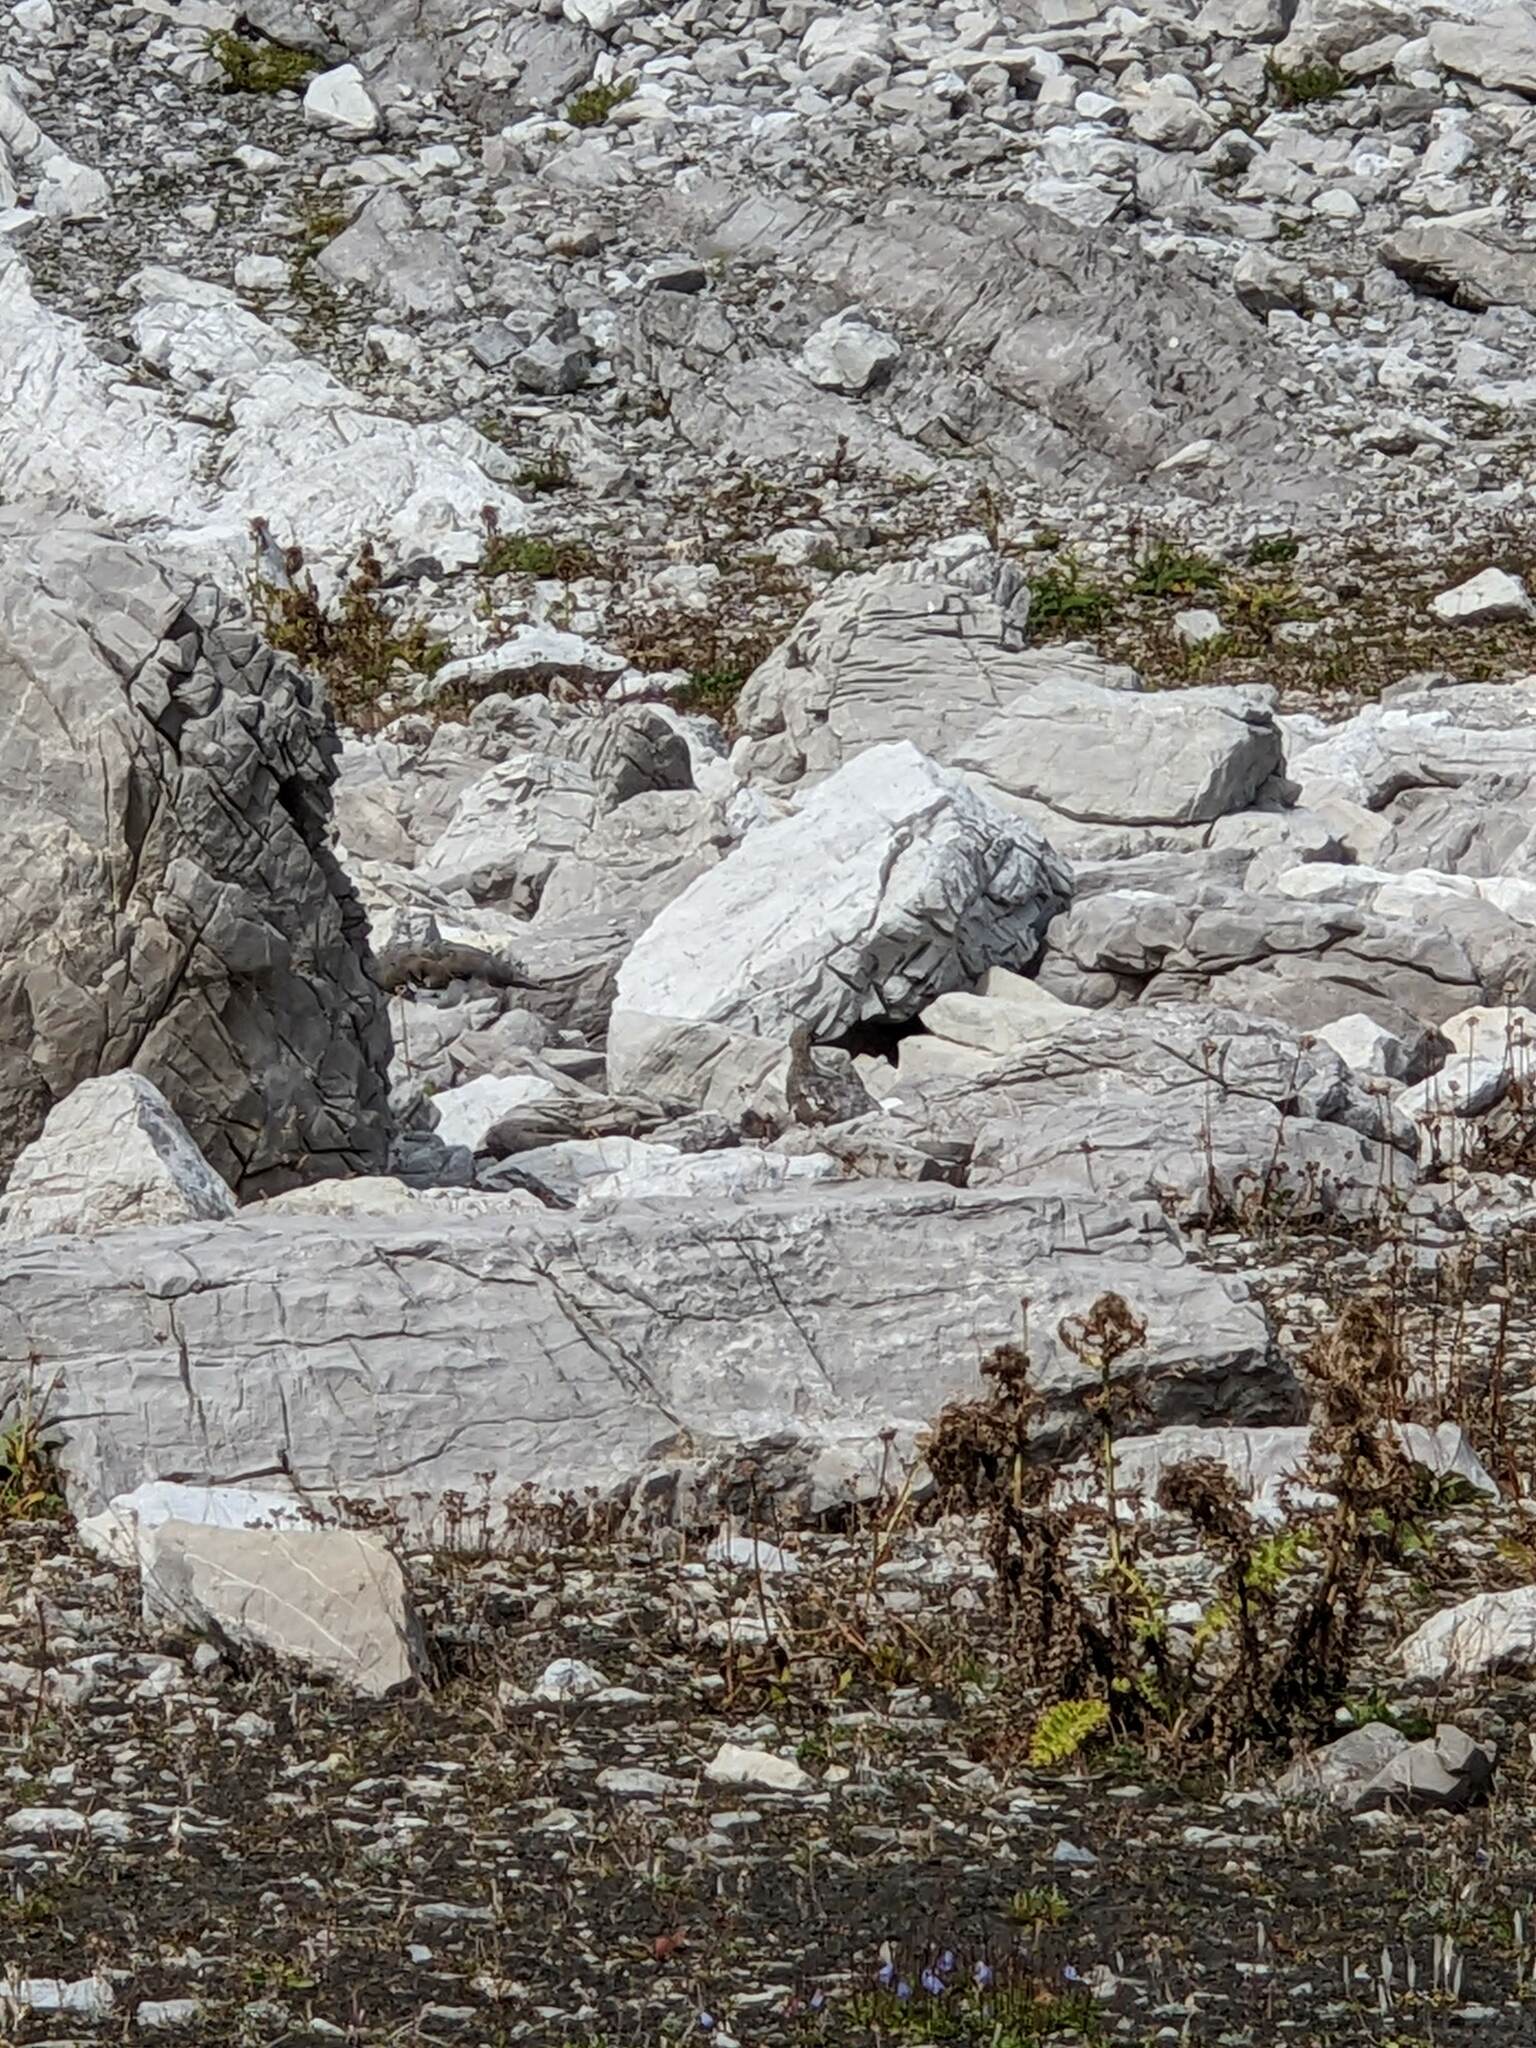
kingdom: Animalia
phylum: Chordata
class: Aves
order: Galliformes
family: Phasianidae
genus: Lagopus
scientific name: Lagopus muta
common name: Rock ptarmigan
